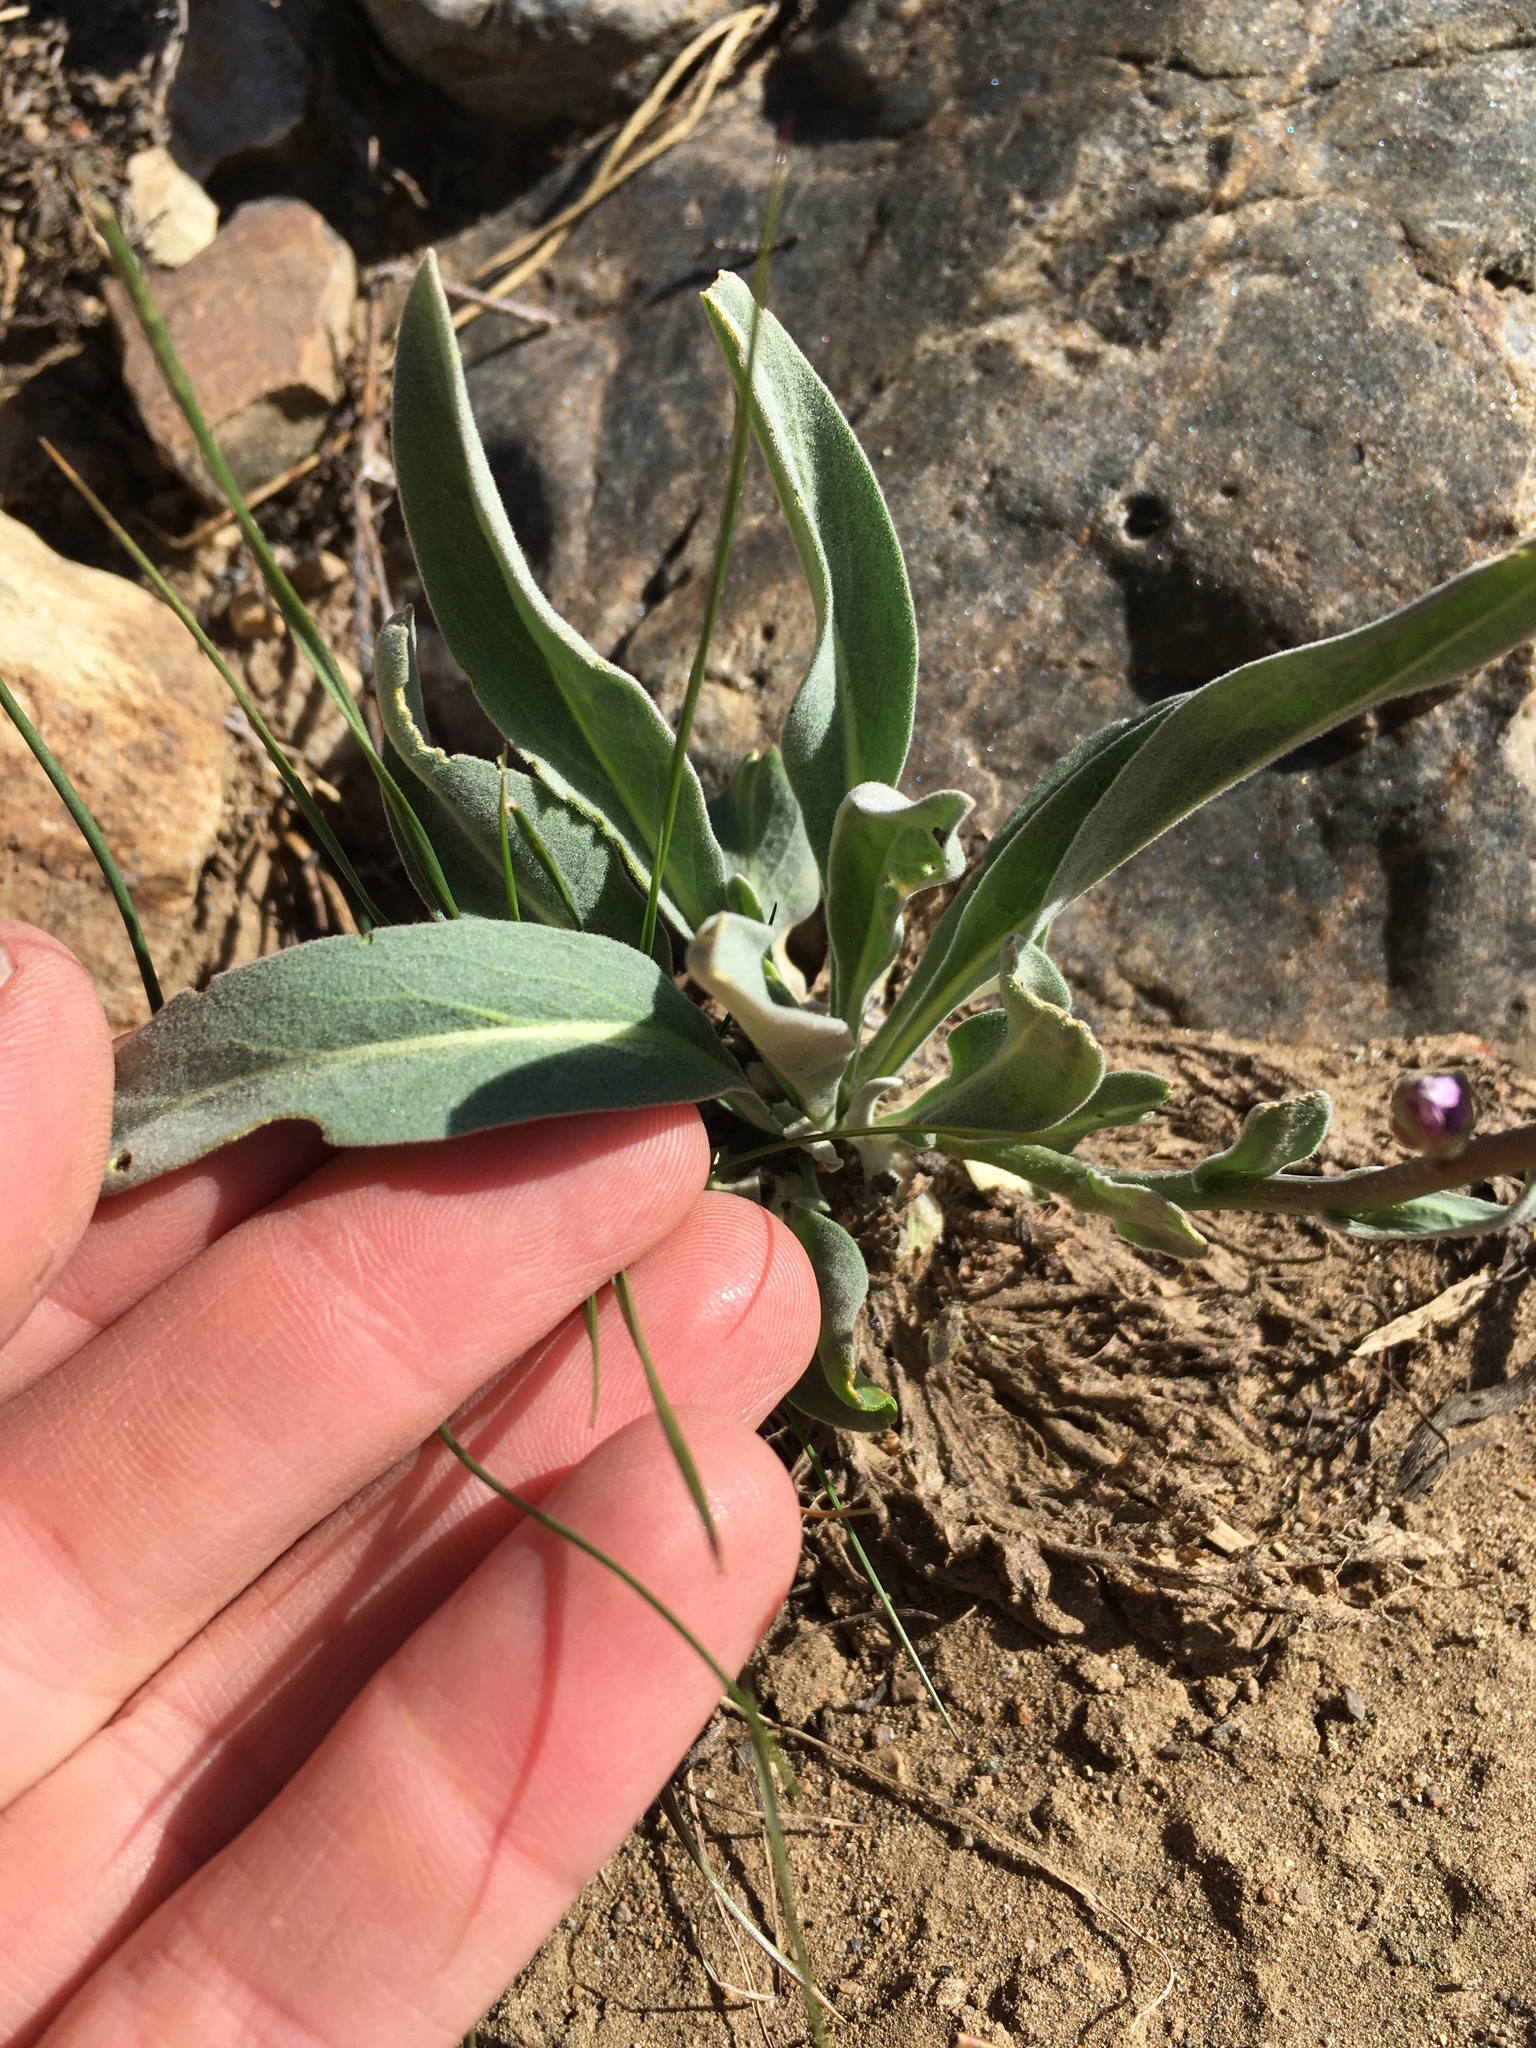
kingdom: Plantae
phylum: Tracheophyta
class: Magnoliopsida
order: Brassicales
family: Brassicaceae
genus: Phoenicaulis
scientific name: Phoenicaulis cheiranthoides
